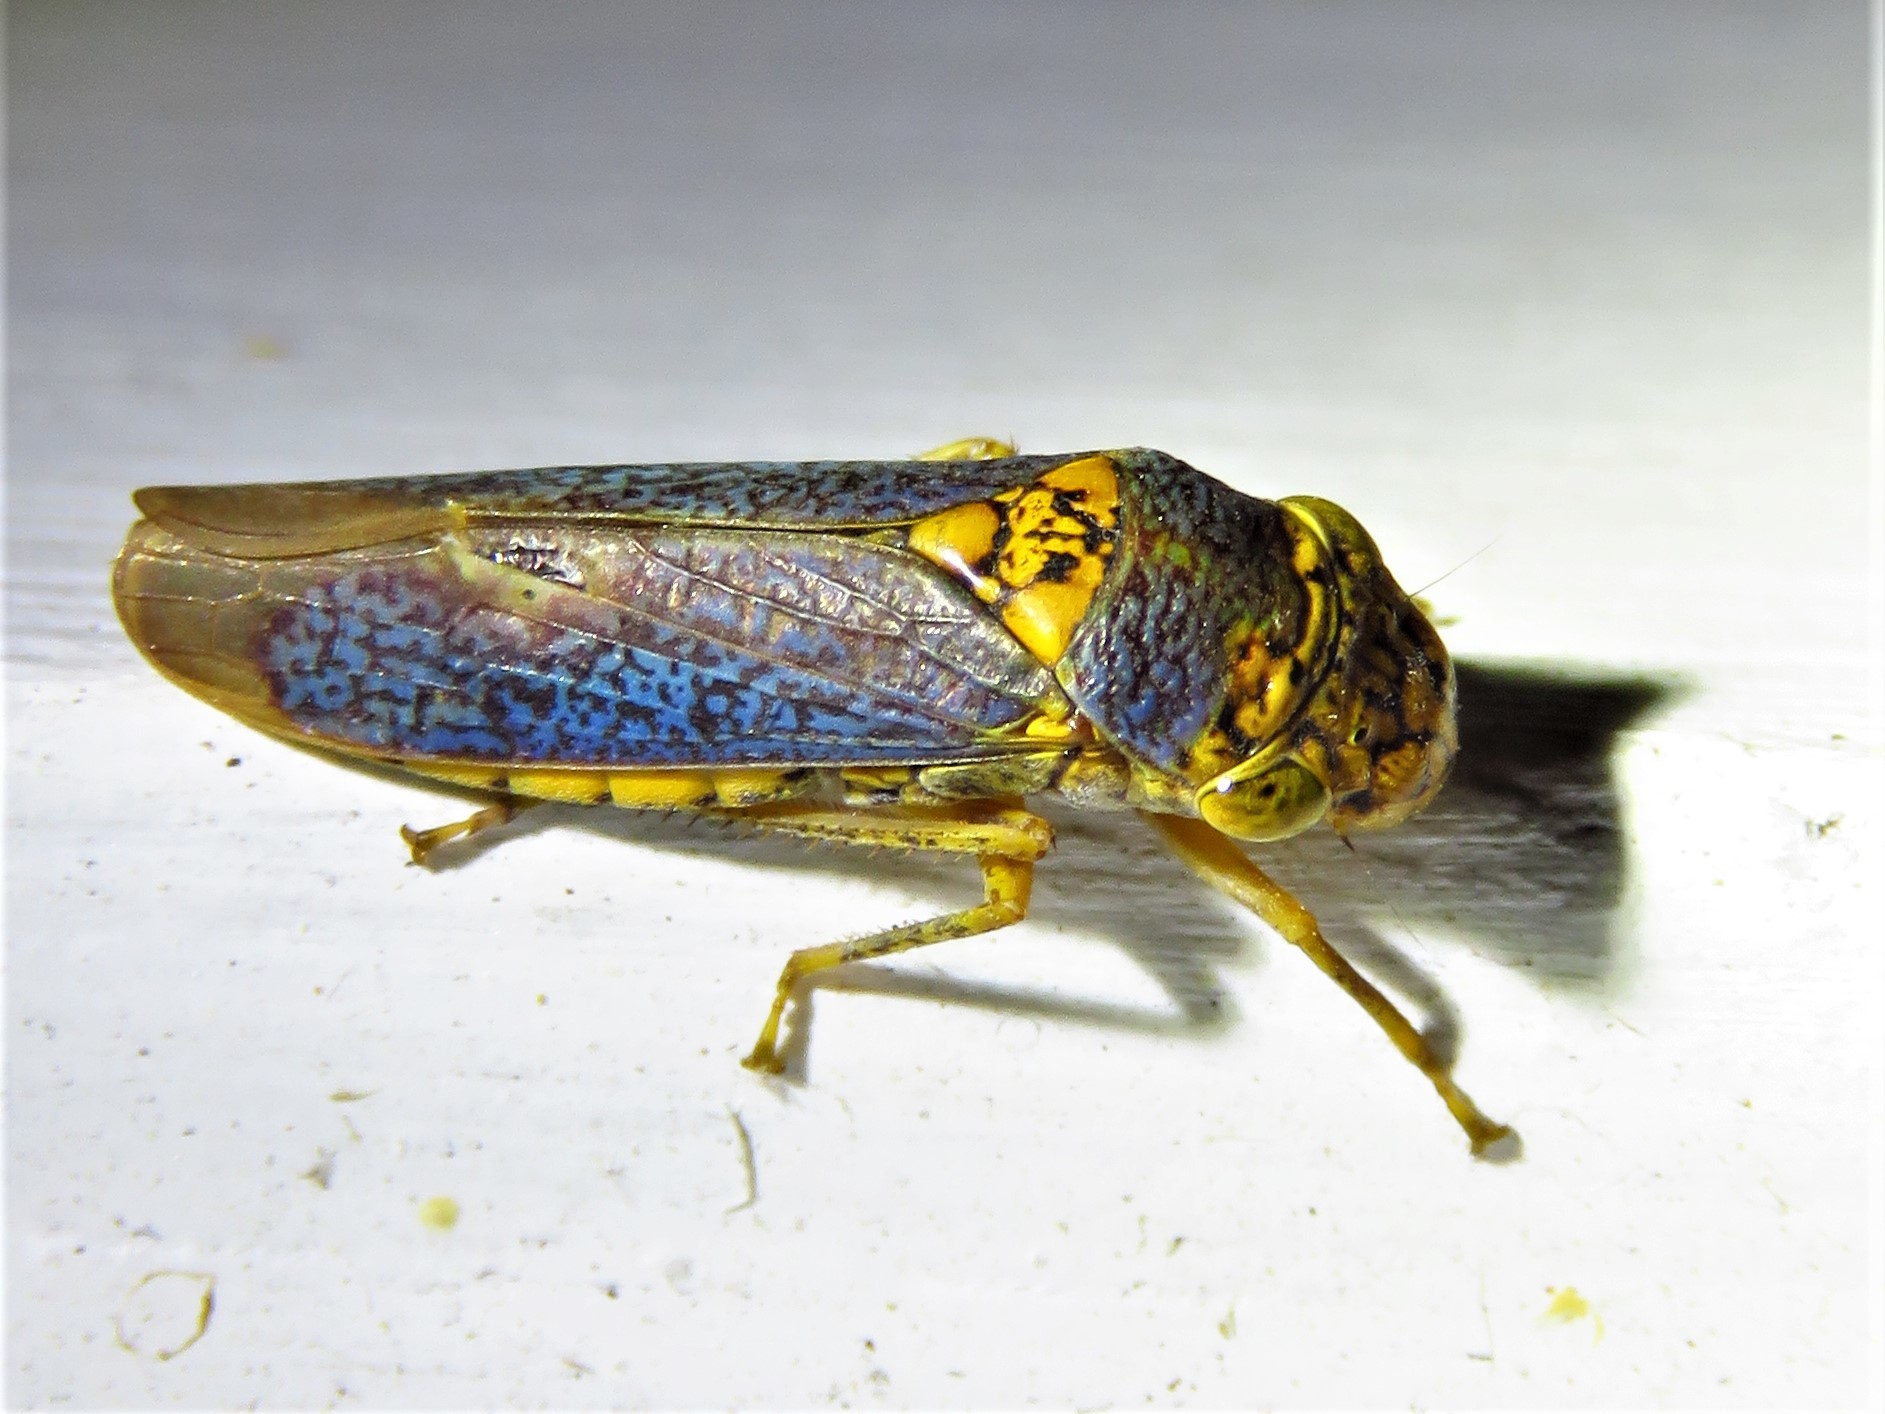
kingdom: Animalia
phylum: Arthropoda
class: Insecta
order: Hemiptera
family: Cicadellidae
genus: Oncometopia
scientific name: Oncometopia orbona
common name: Broad-headed sharpshooter
